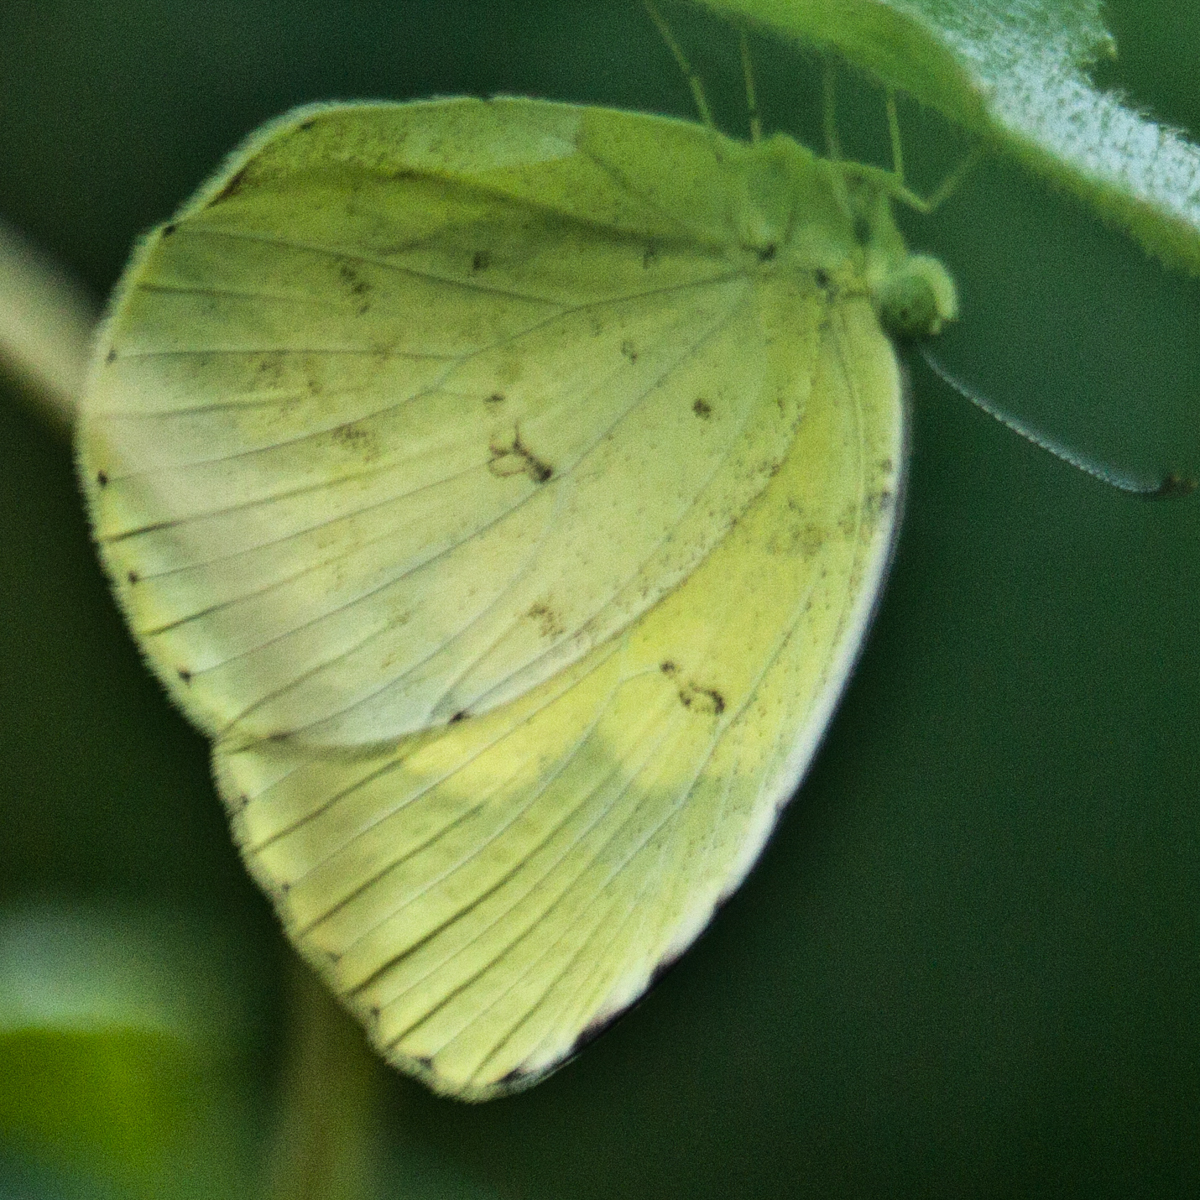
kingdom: Animalia
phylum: Arthropoda
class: Insecta
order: Lepidoptera
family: Pieridae
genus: Eurema
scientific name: Eurema hecabe
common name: Pale grass yellow
